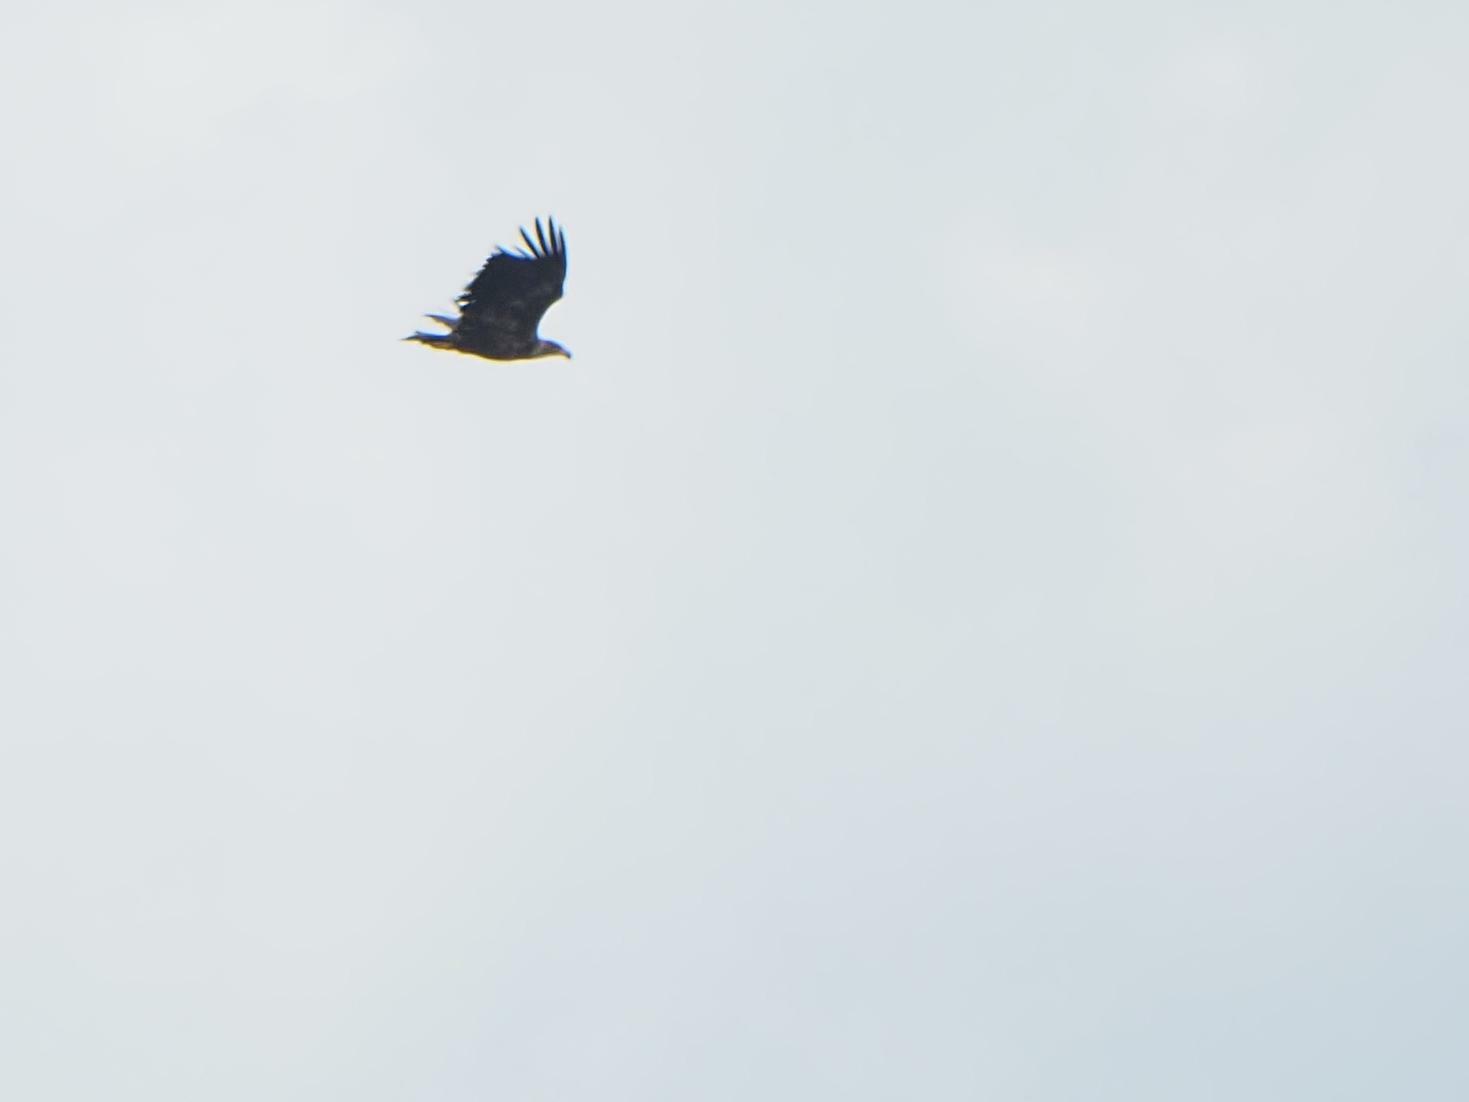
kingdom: Animalia
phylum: Chordata
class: Aves
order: Accipitriformes
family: Accipitridae
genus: Haliaeetus
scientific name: Haliaeetus albicilla
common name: White-tailed eagle
